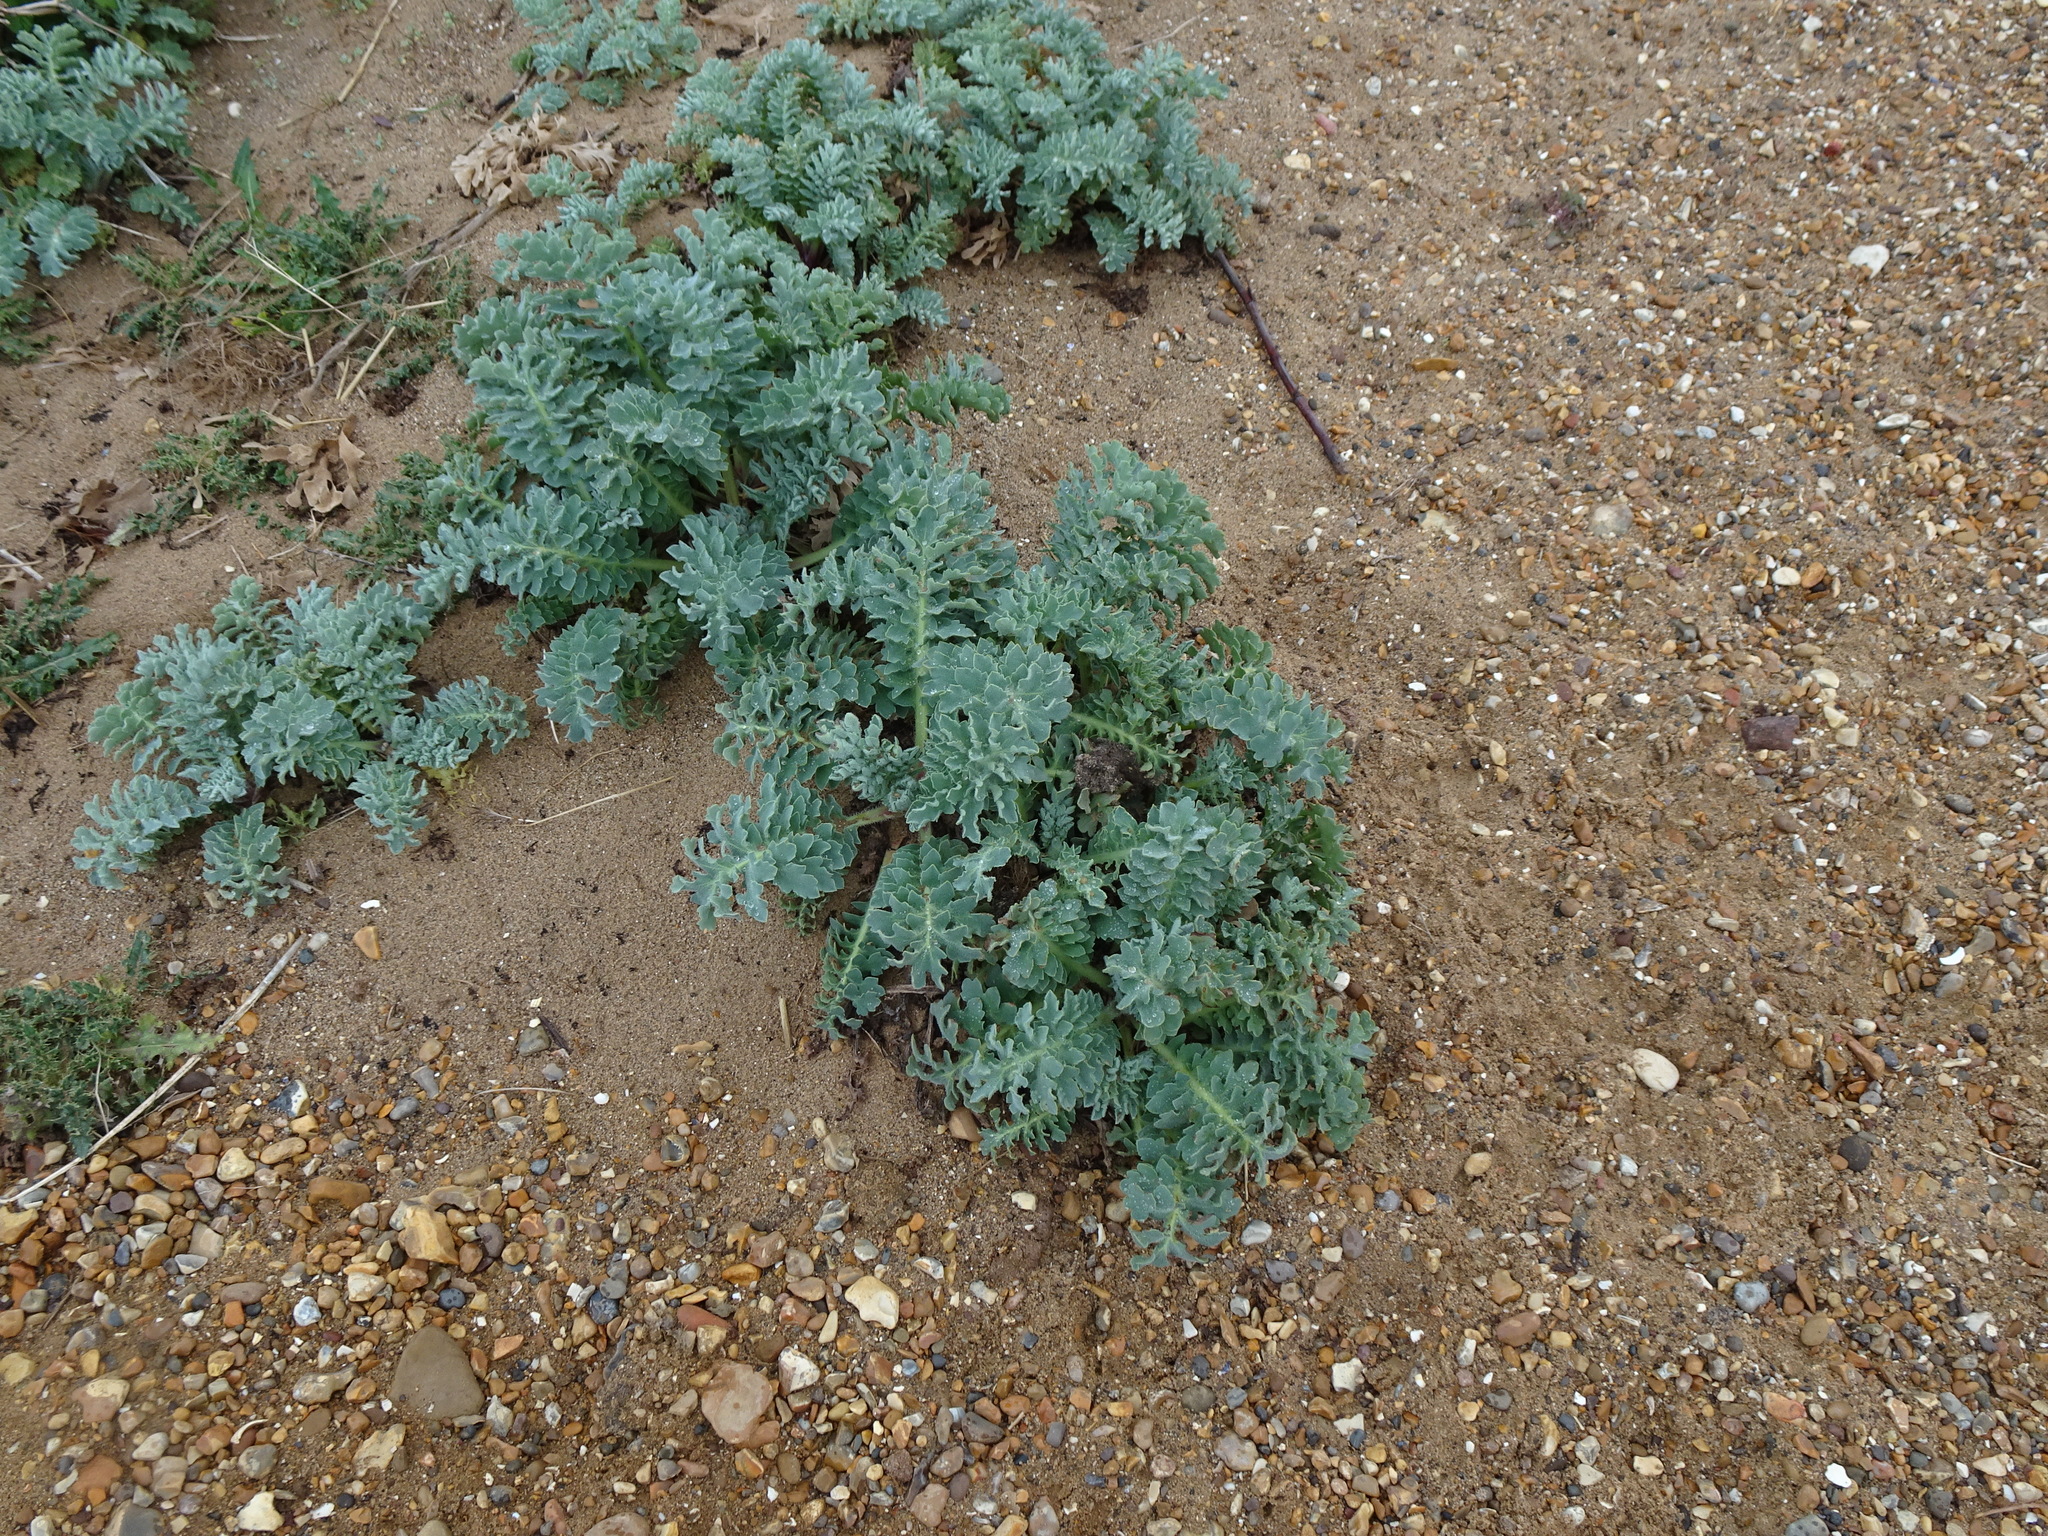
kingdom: Plantae
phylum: Tracheophyta
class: Magnoliopsida
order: Ranunculales
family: Papaveraceae
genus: Glaucium
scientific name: Glaucium flavum
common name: Yellow horned-poppy
